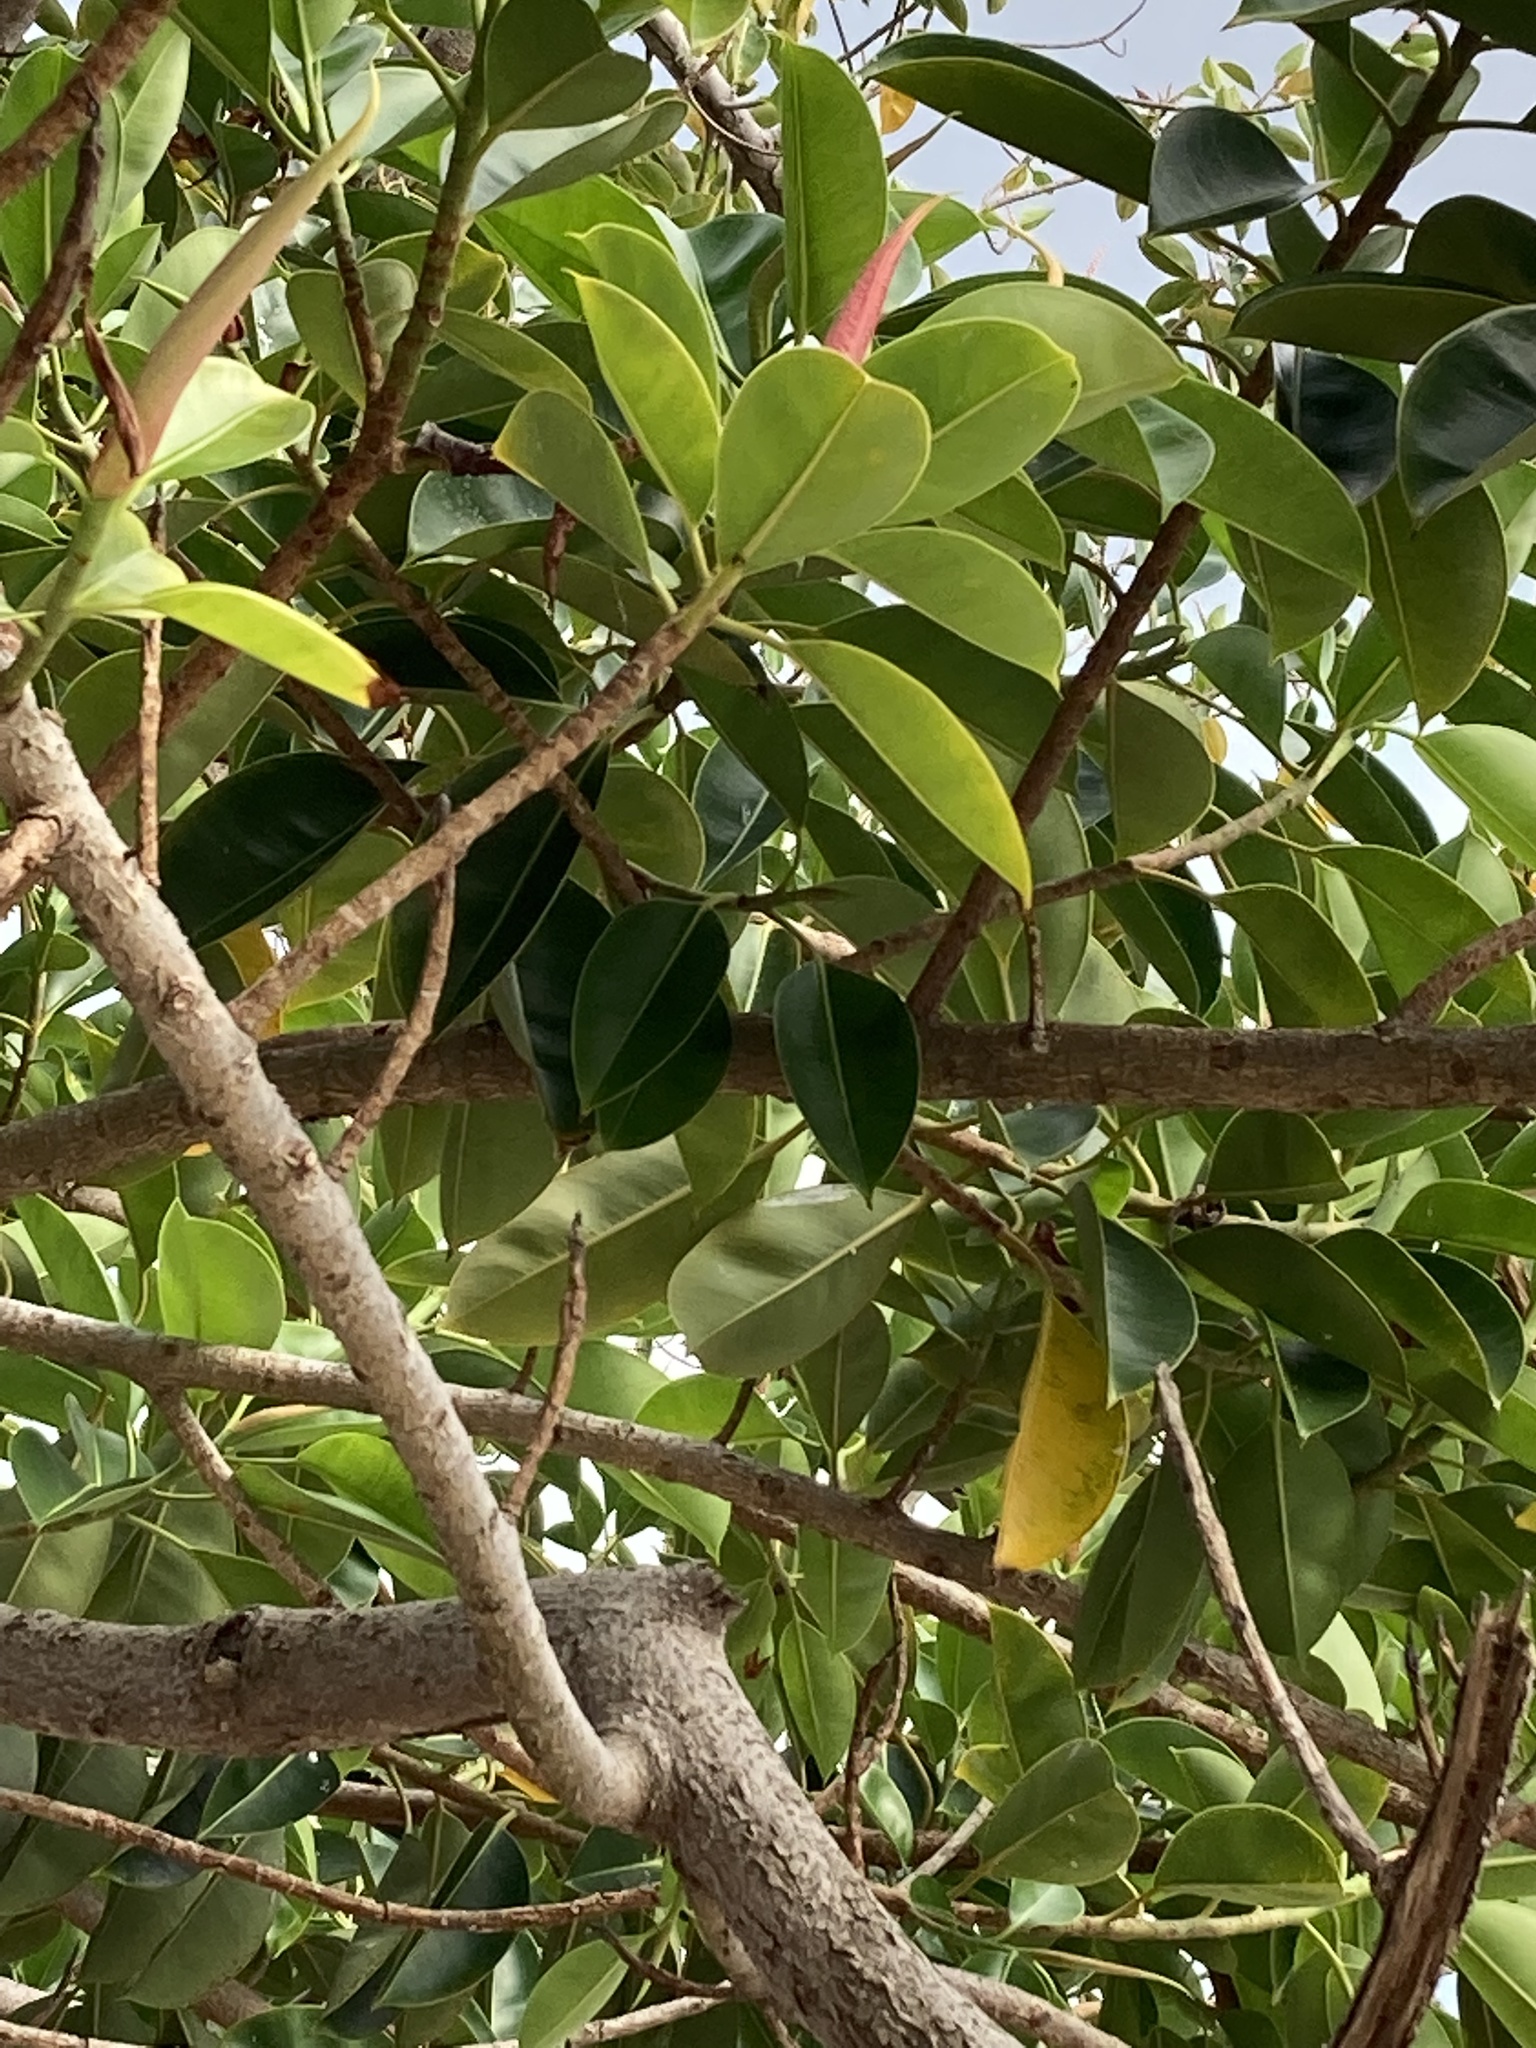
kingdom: Plantae
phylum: Tracheophyta
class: Magnoliopsida
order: Rosales
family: Moraceae
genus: Ficus
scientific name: Ficus elastica
